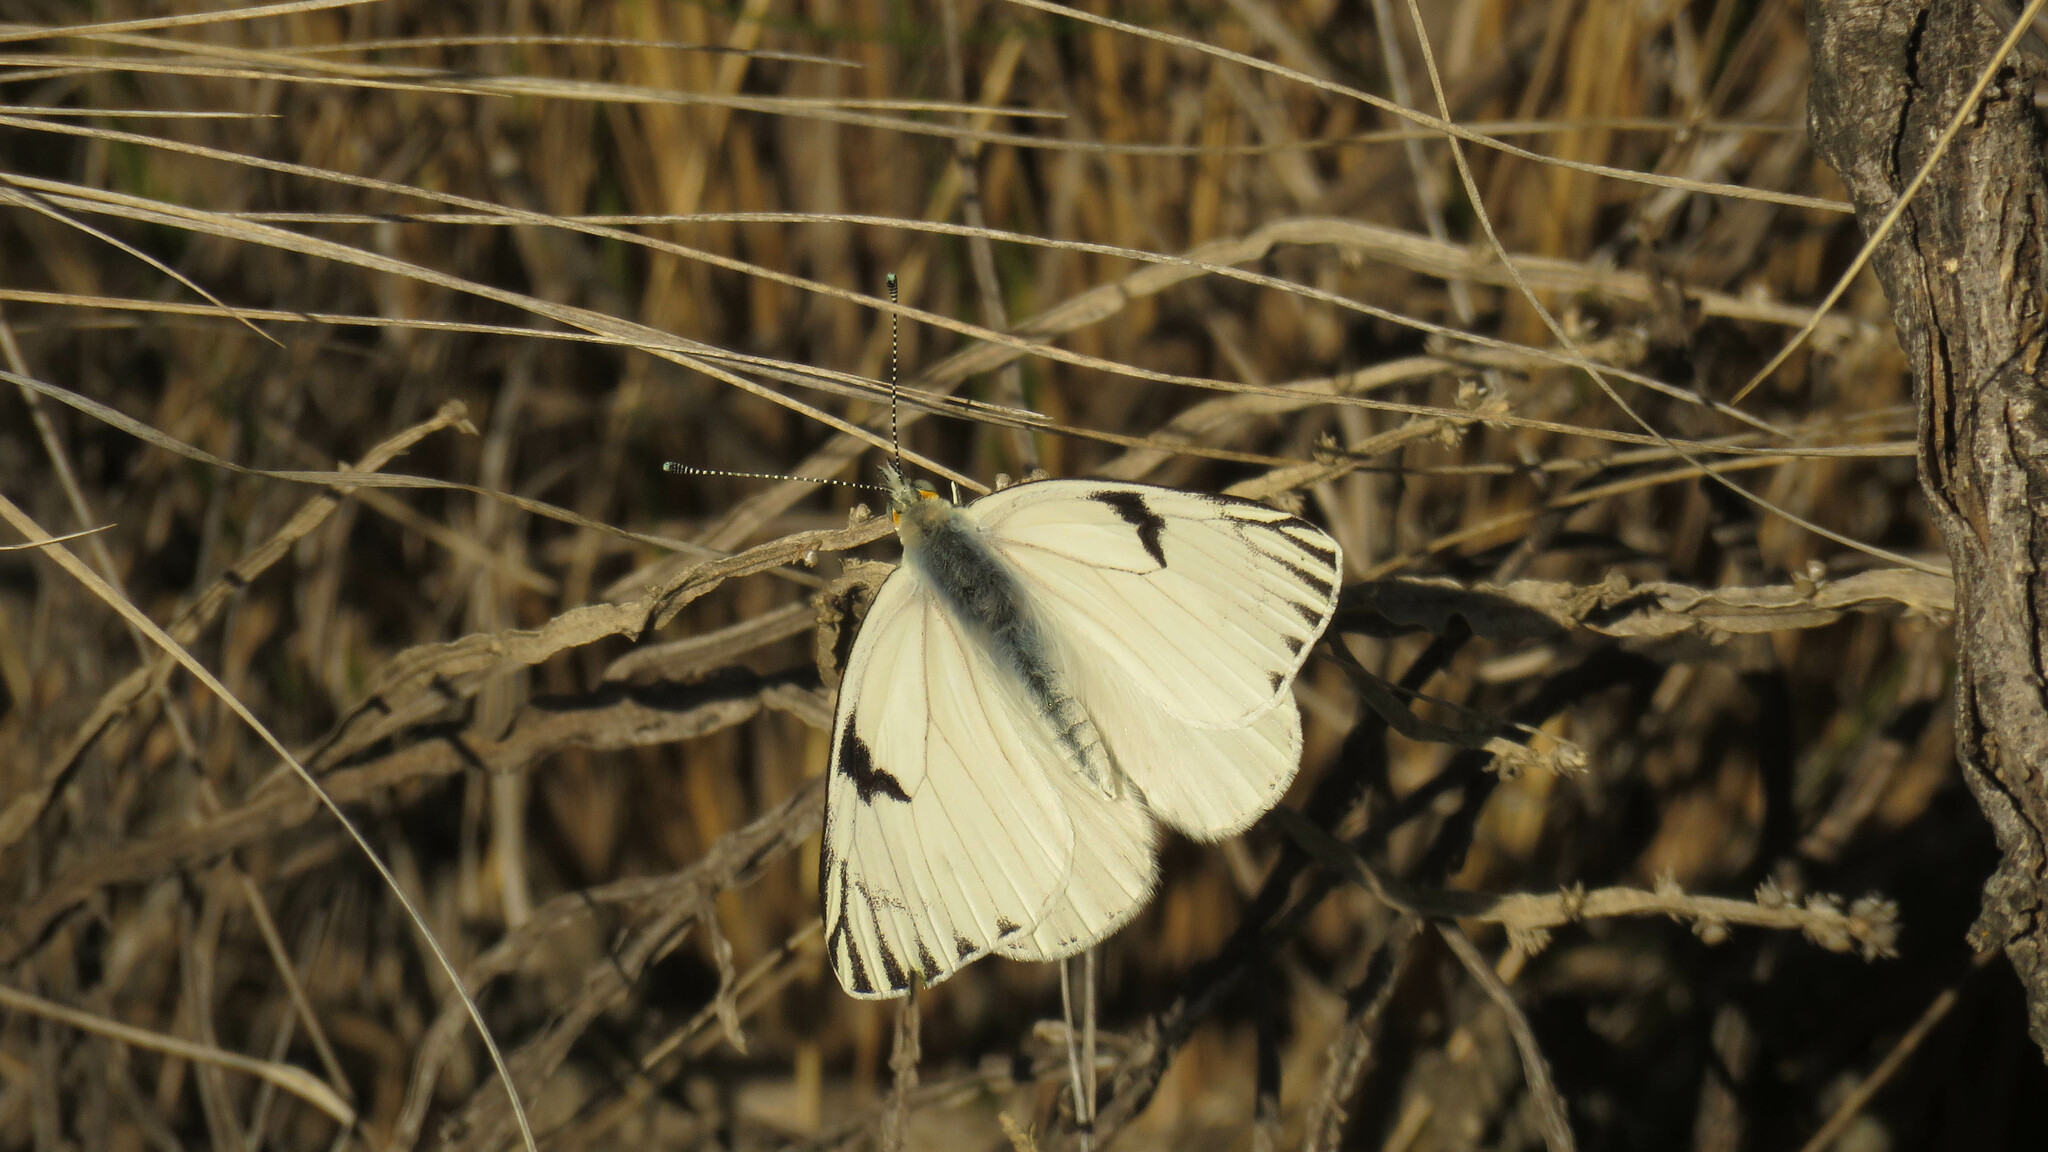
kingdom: Animalia
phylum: Arthropoda
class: Insecta
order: Lepidoptera
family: Pieridae
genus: Tatochila
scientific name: Tatochila mercedis
